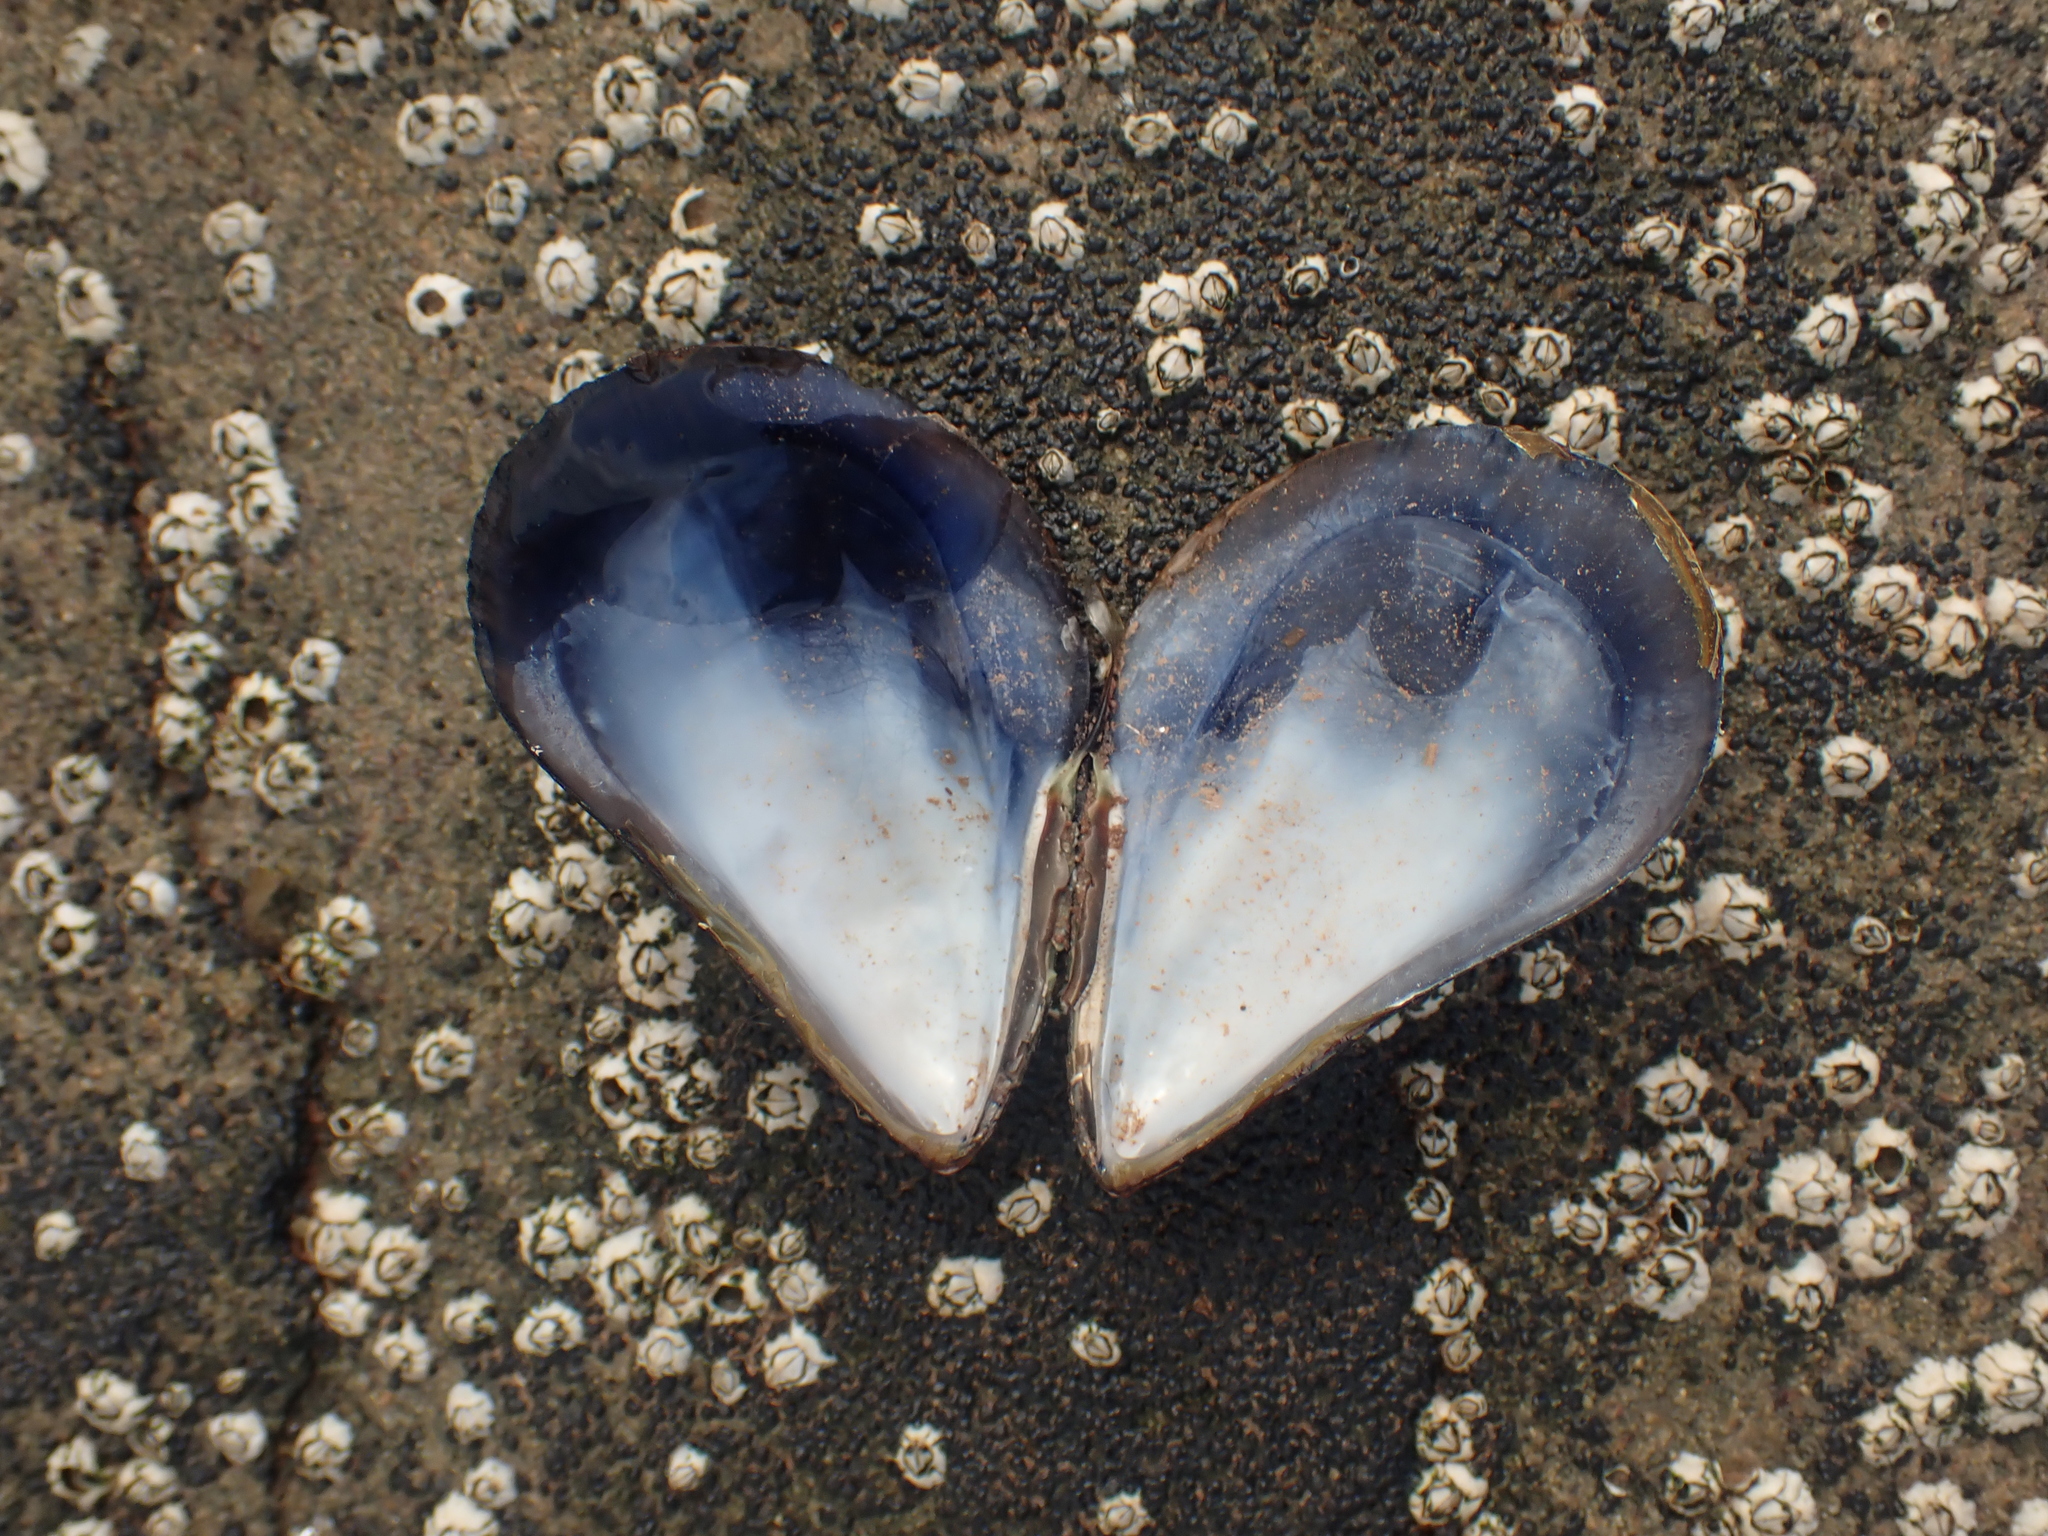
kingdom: Animalia
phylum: Mollusca
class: Bivalvia
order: Mytilida
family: Mytilidae
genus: Mytilus
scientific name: Mytilus edulis
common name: Blue mussel
